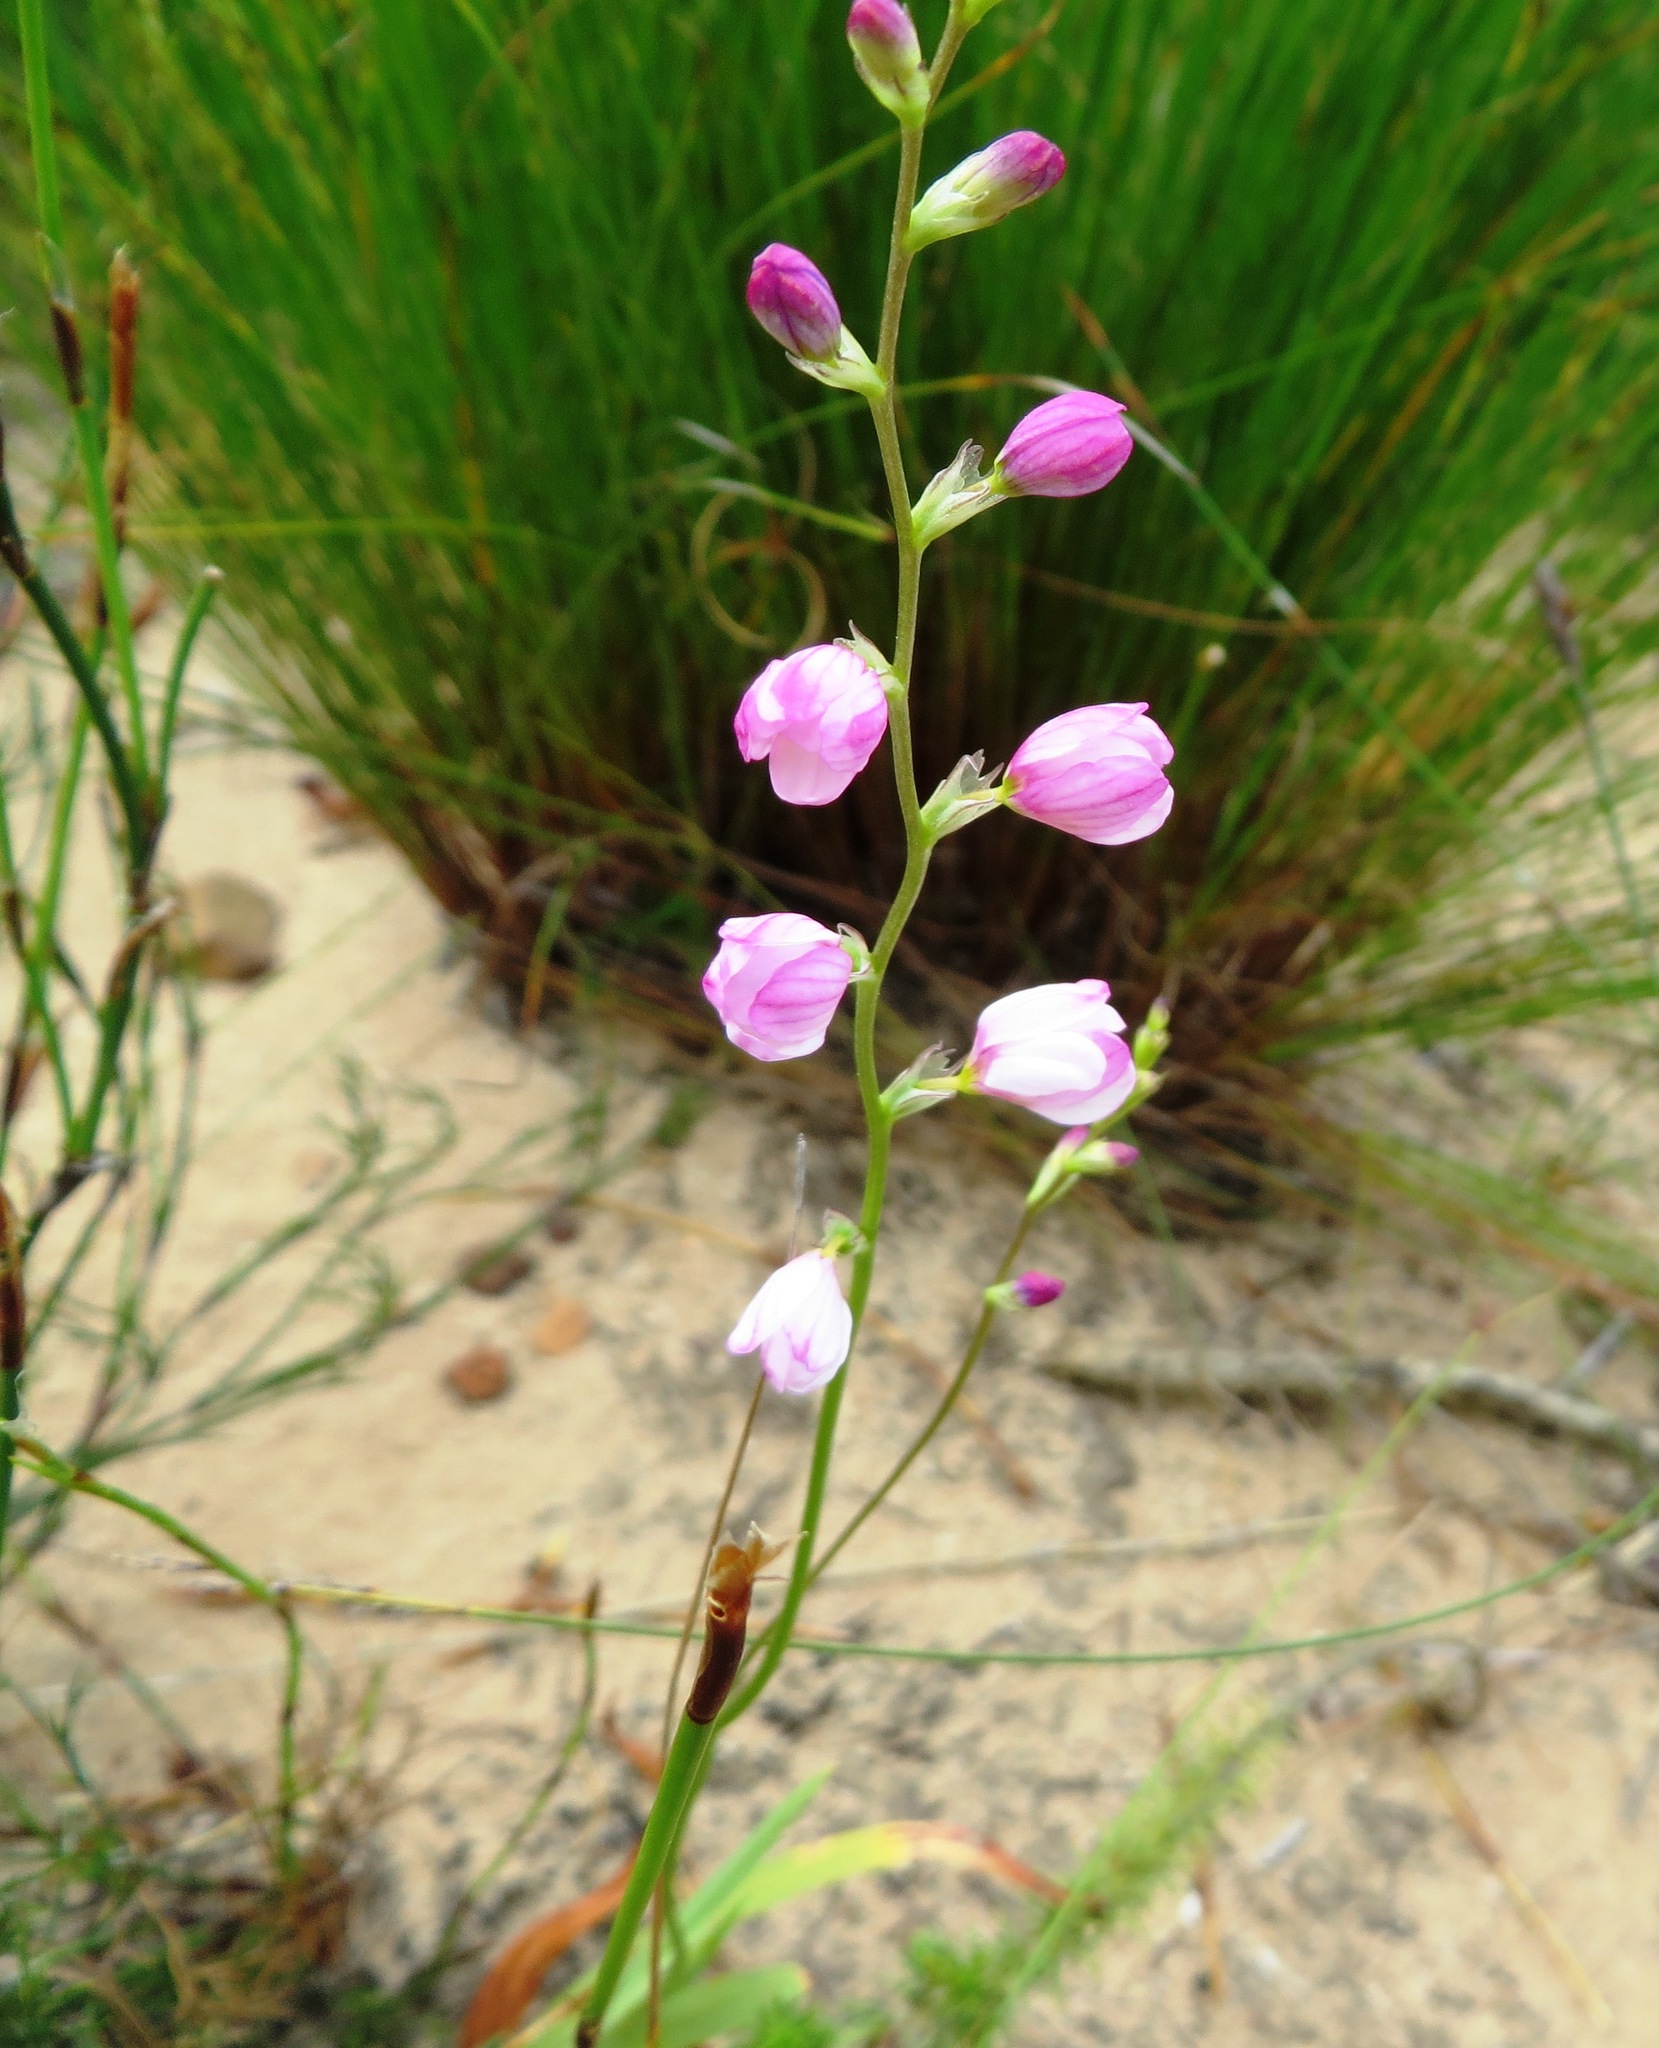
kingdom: Plantae
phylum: Tracheophyta
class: Liliopsida
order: Asparagales
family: Iridaceae
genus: Ixia
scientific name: Ixia scillaris
